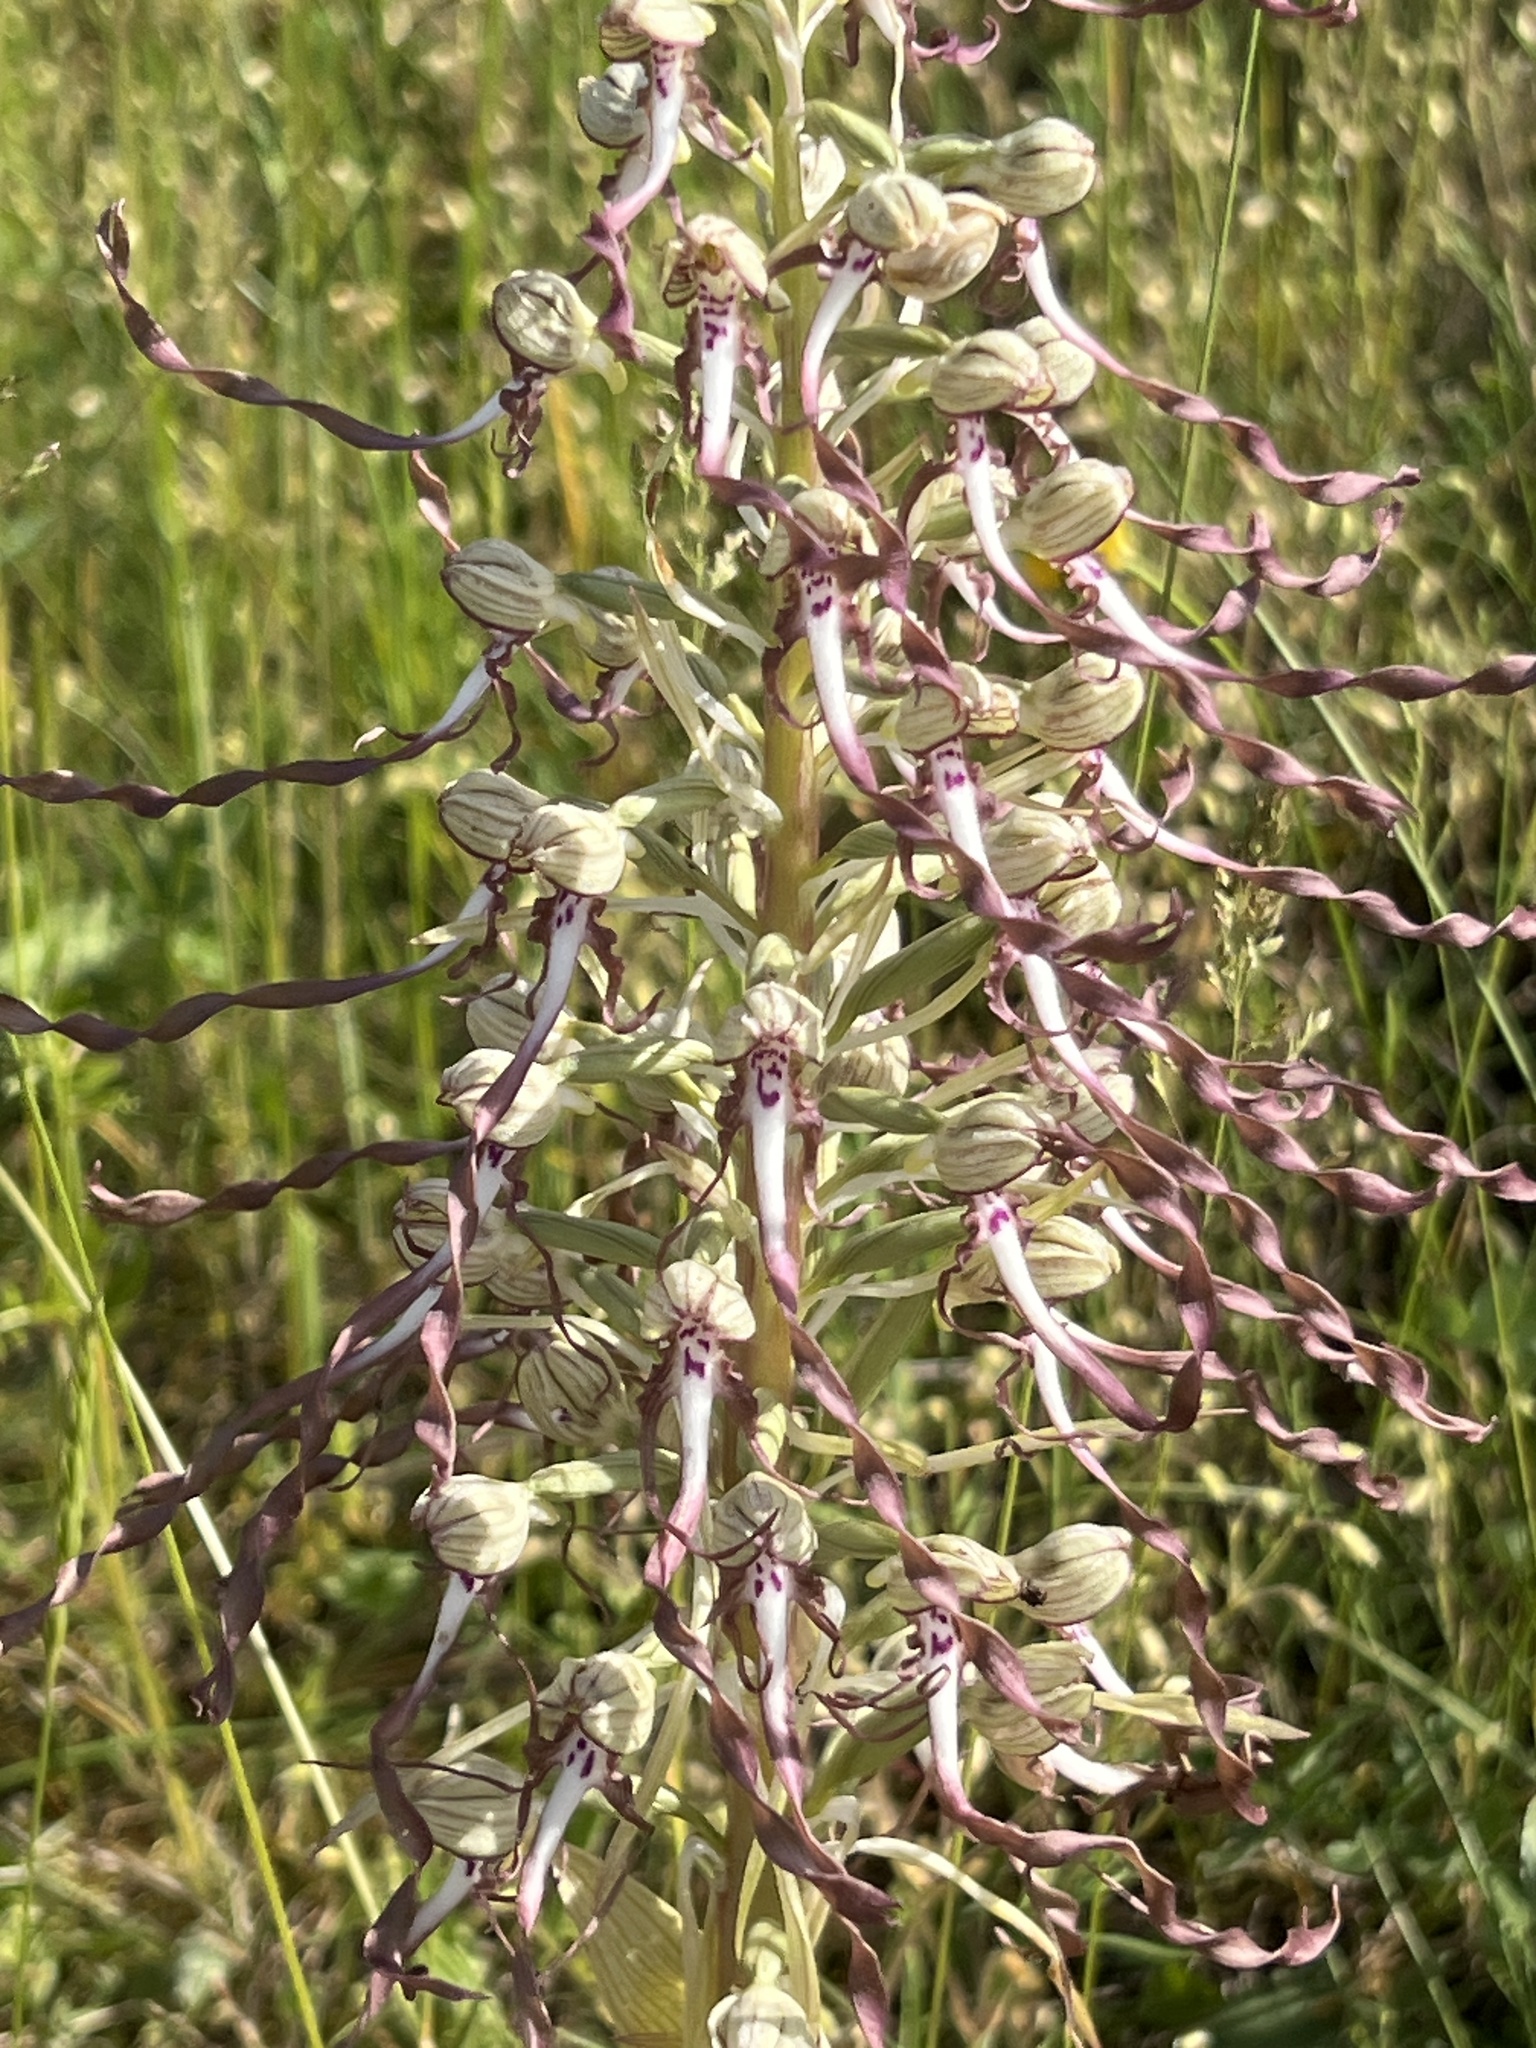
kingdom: Plantae
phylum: Tracheophyta
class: Liliopsida
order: Asparagales
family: Orchidaceae
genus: Himantoglossum
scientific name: Himantoglossum hircinum
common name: Lizard orchid
